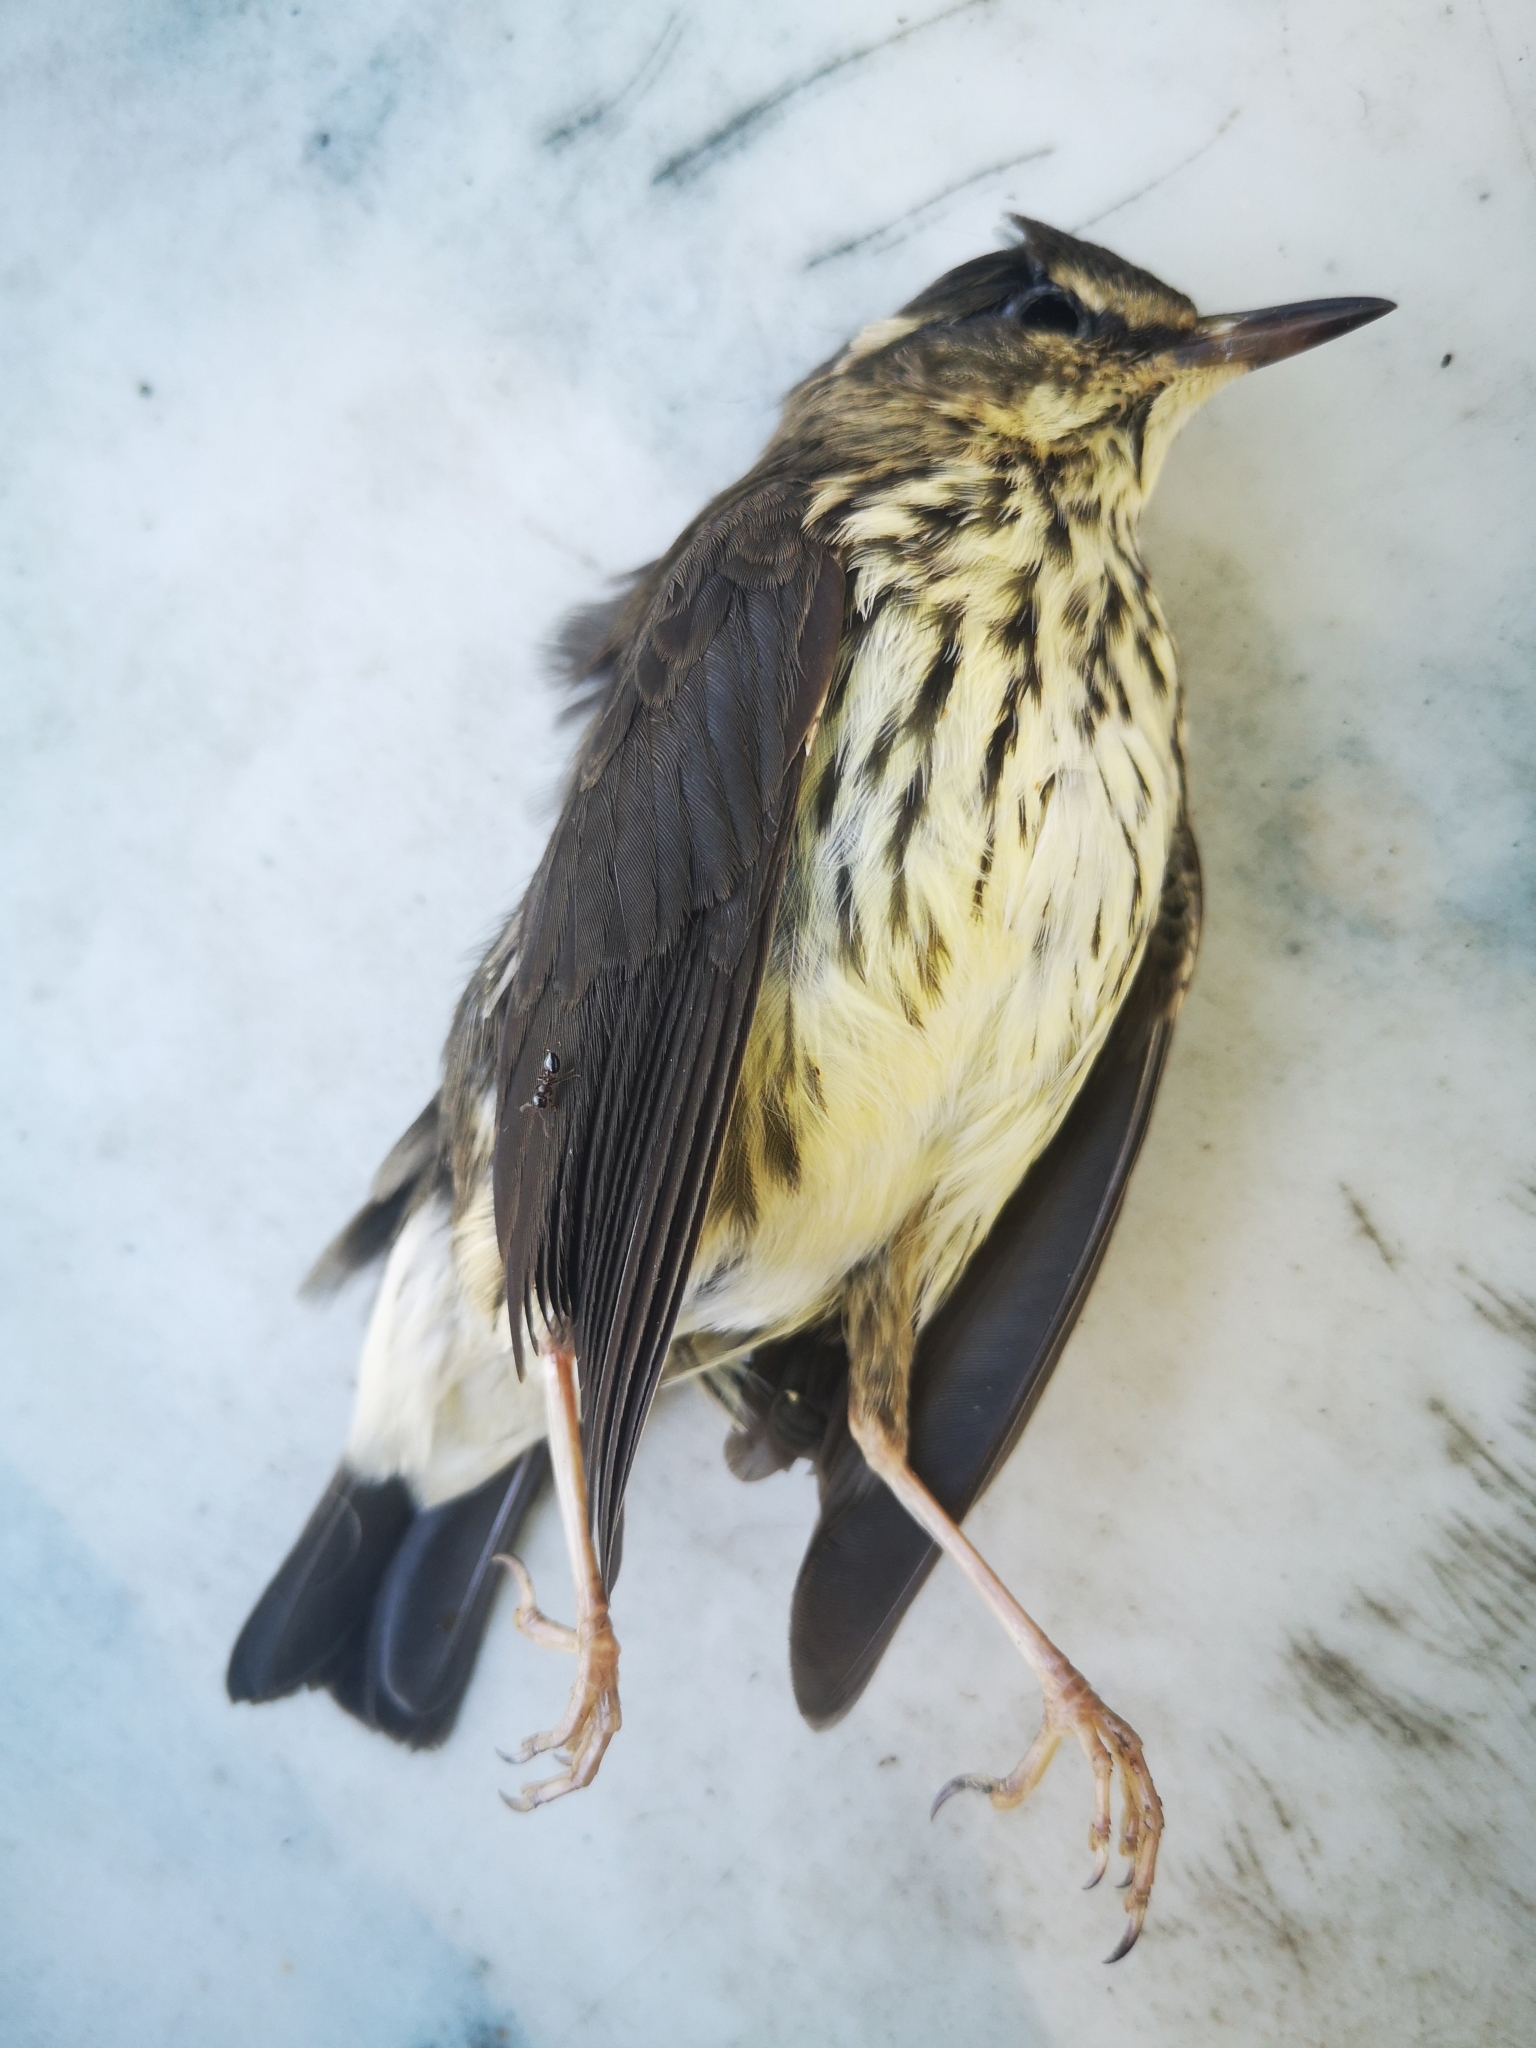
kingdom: Animalia
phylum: Chordata
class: Aves
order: Passeriformes
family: Parulidae
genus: Parkesia
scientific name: Parkesia noveboracensis
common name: Northern waterthrush
